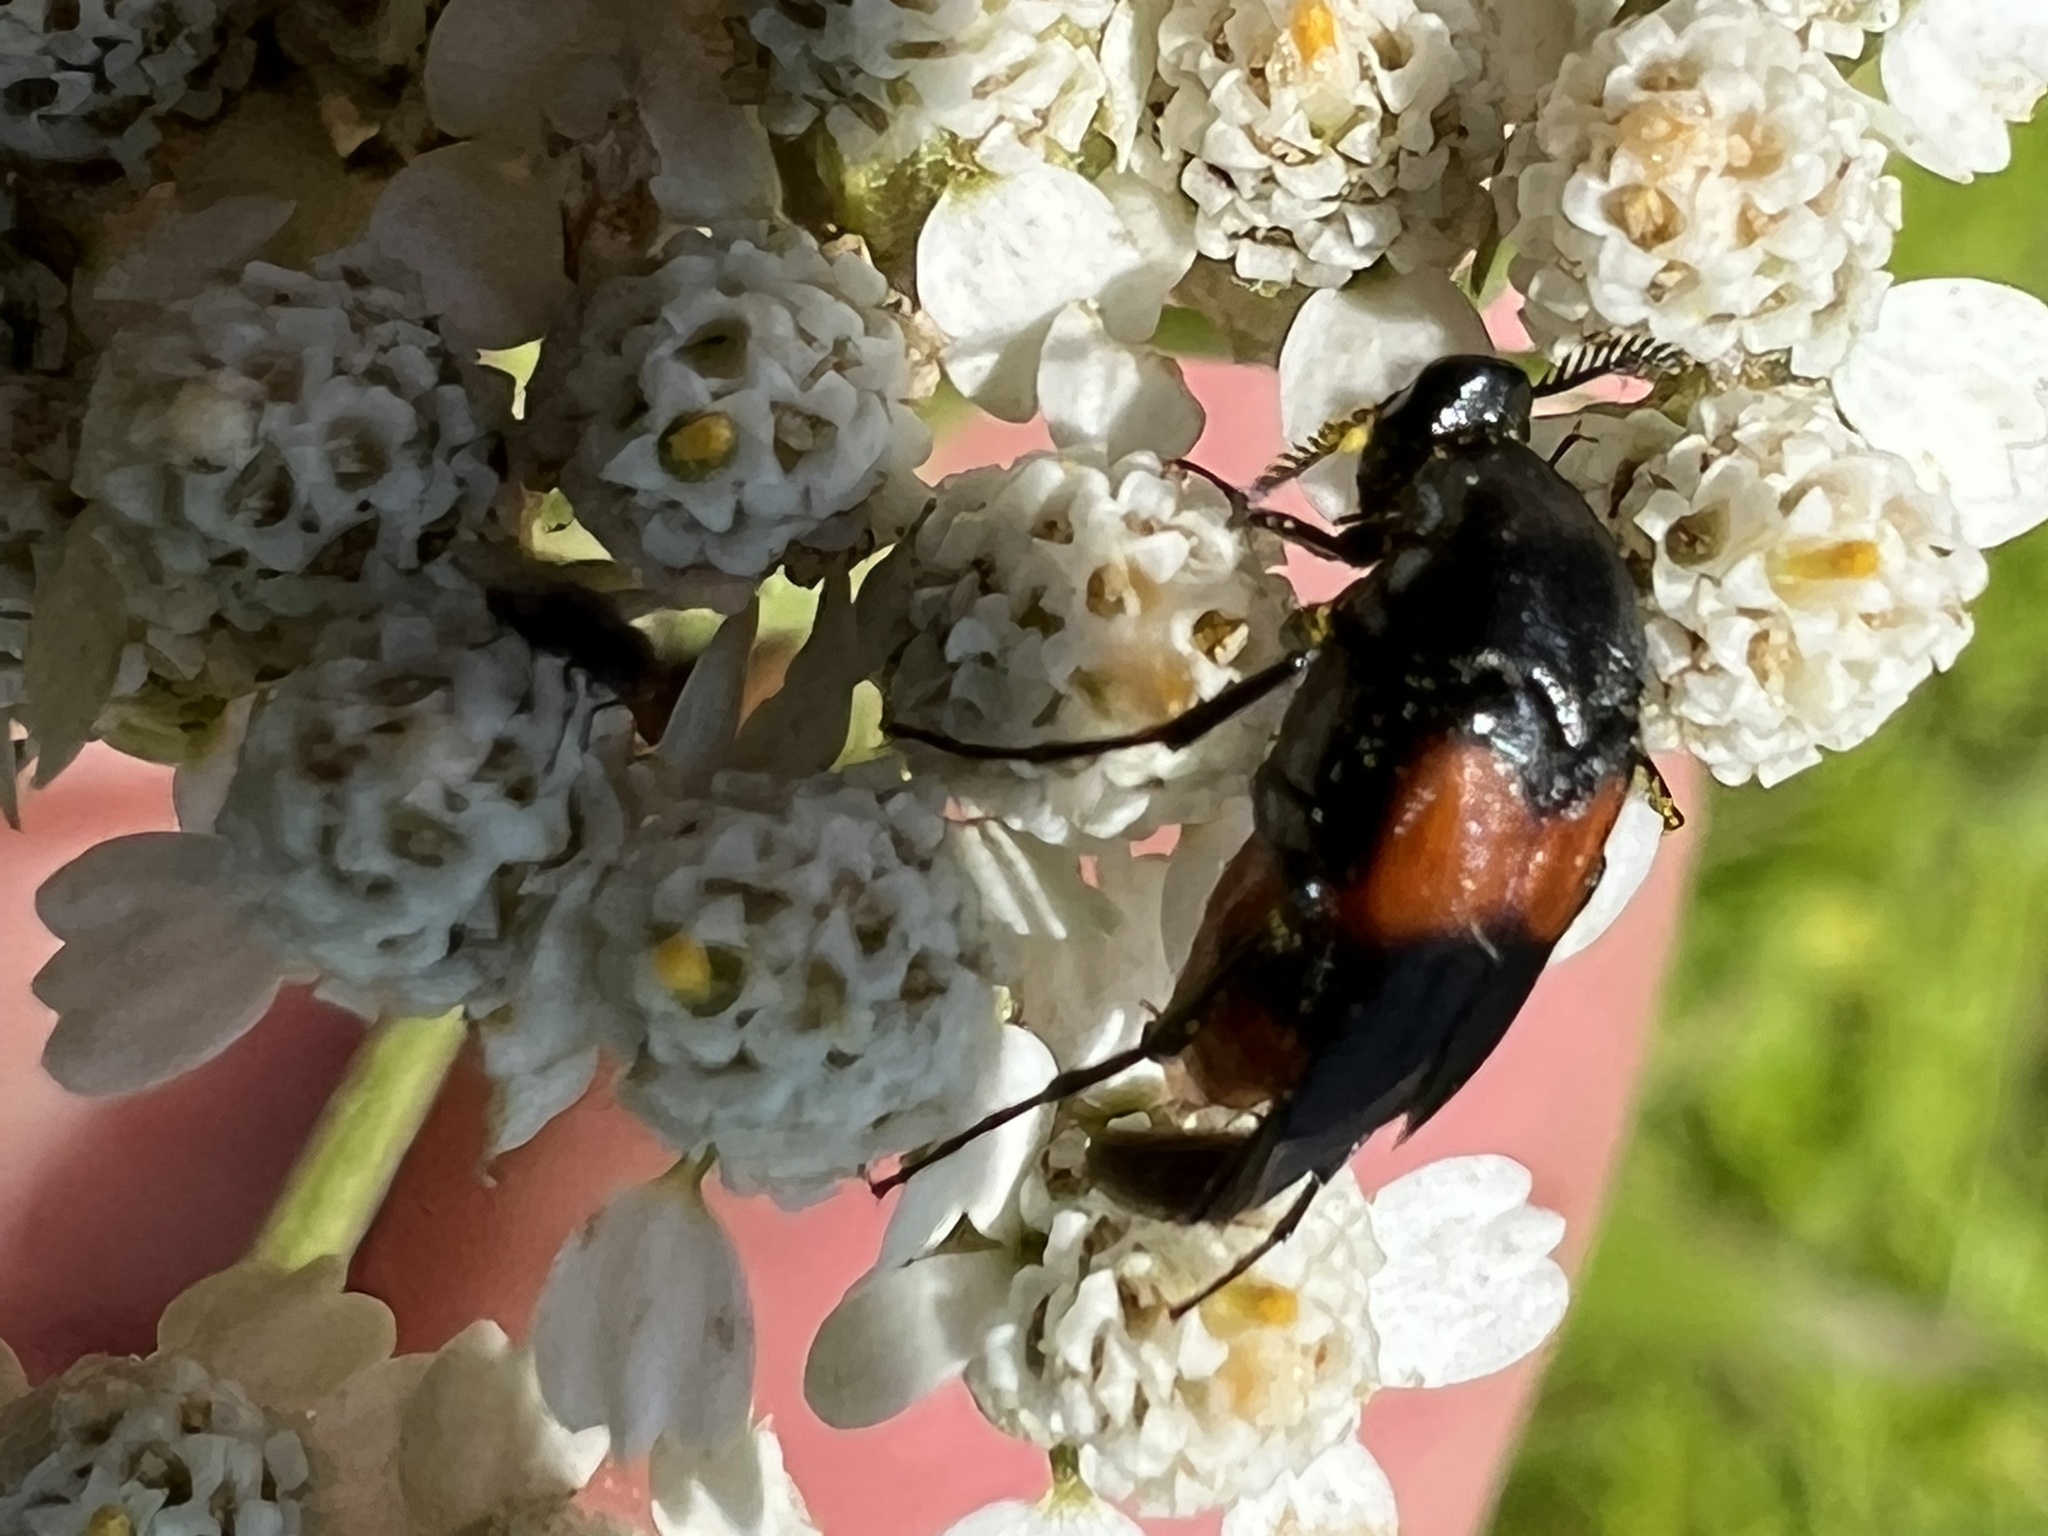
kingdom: Animalia
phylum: Arthropoda
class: Insecta
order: Coleoptera
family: Ripiphoridae
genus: Macrosiagon
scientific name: Macrosiagon cruentum
